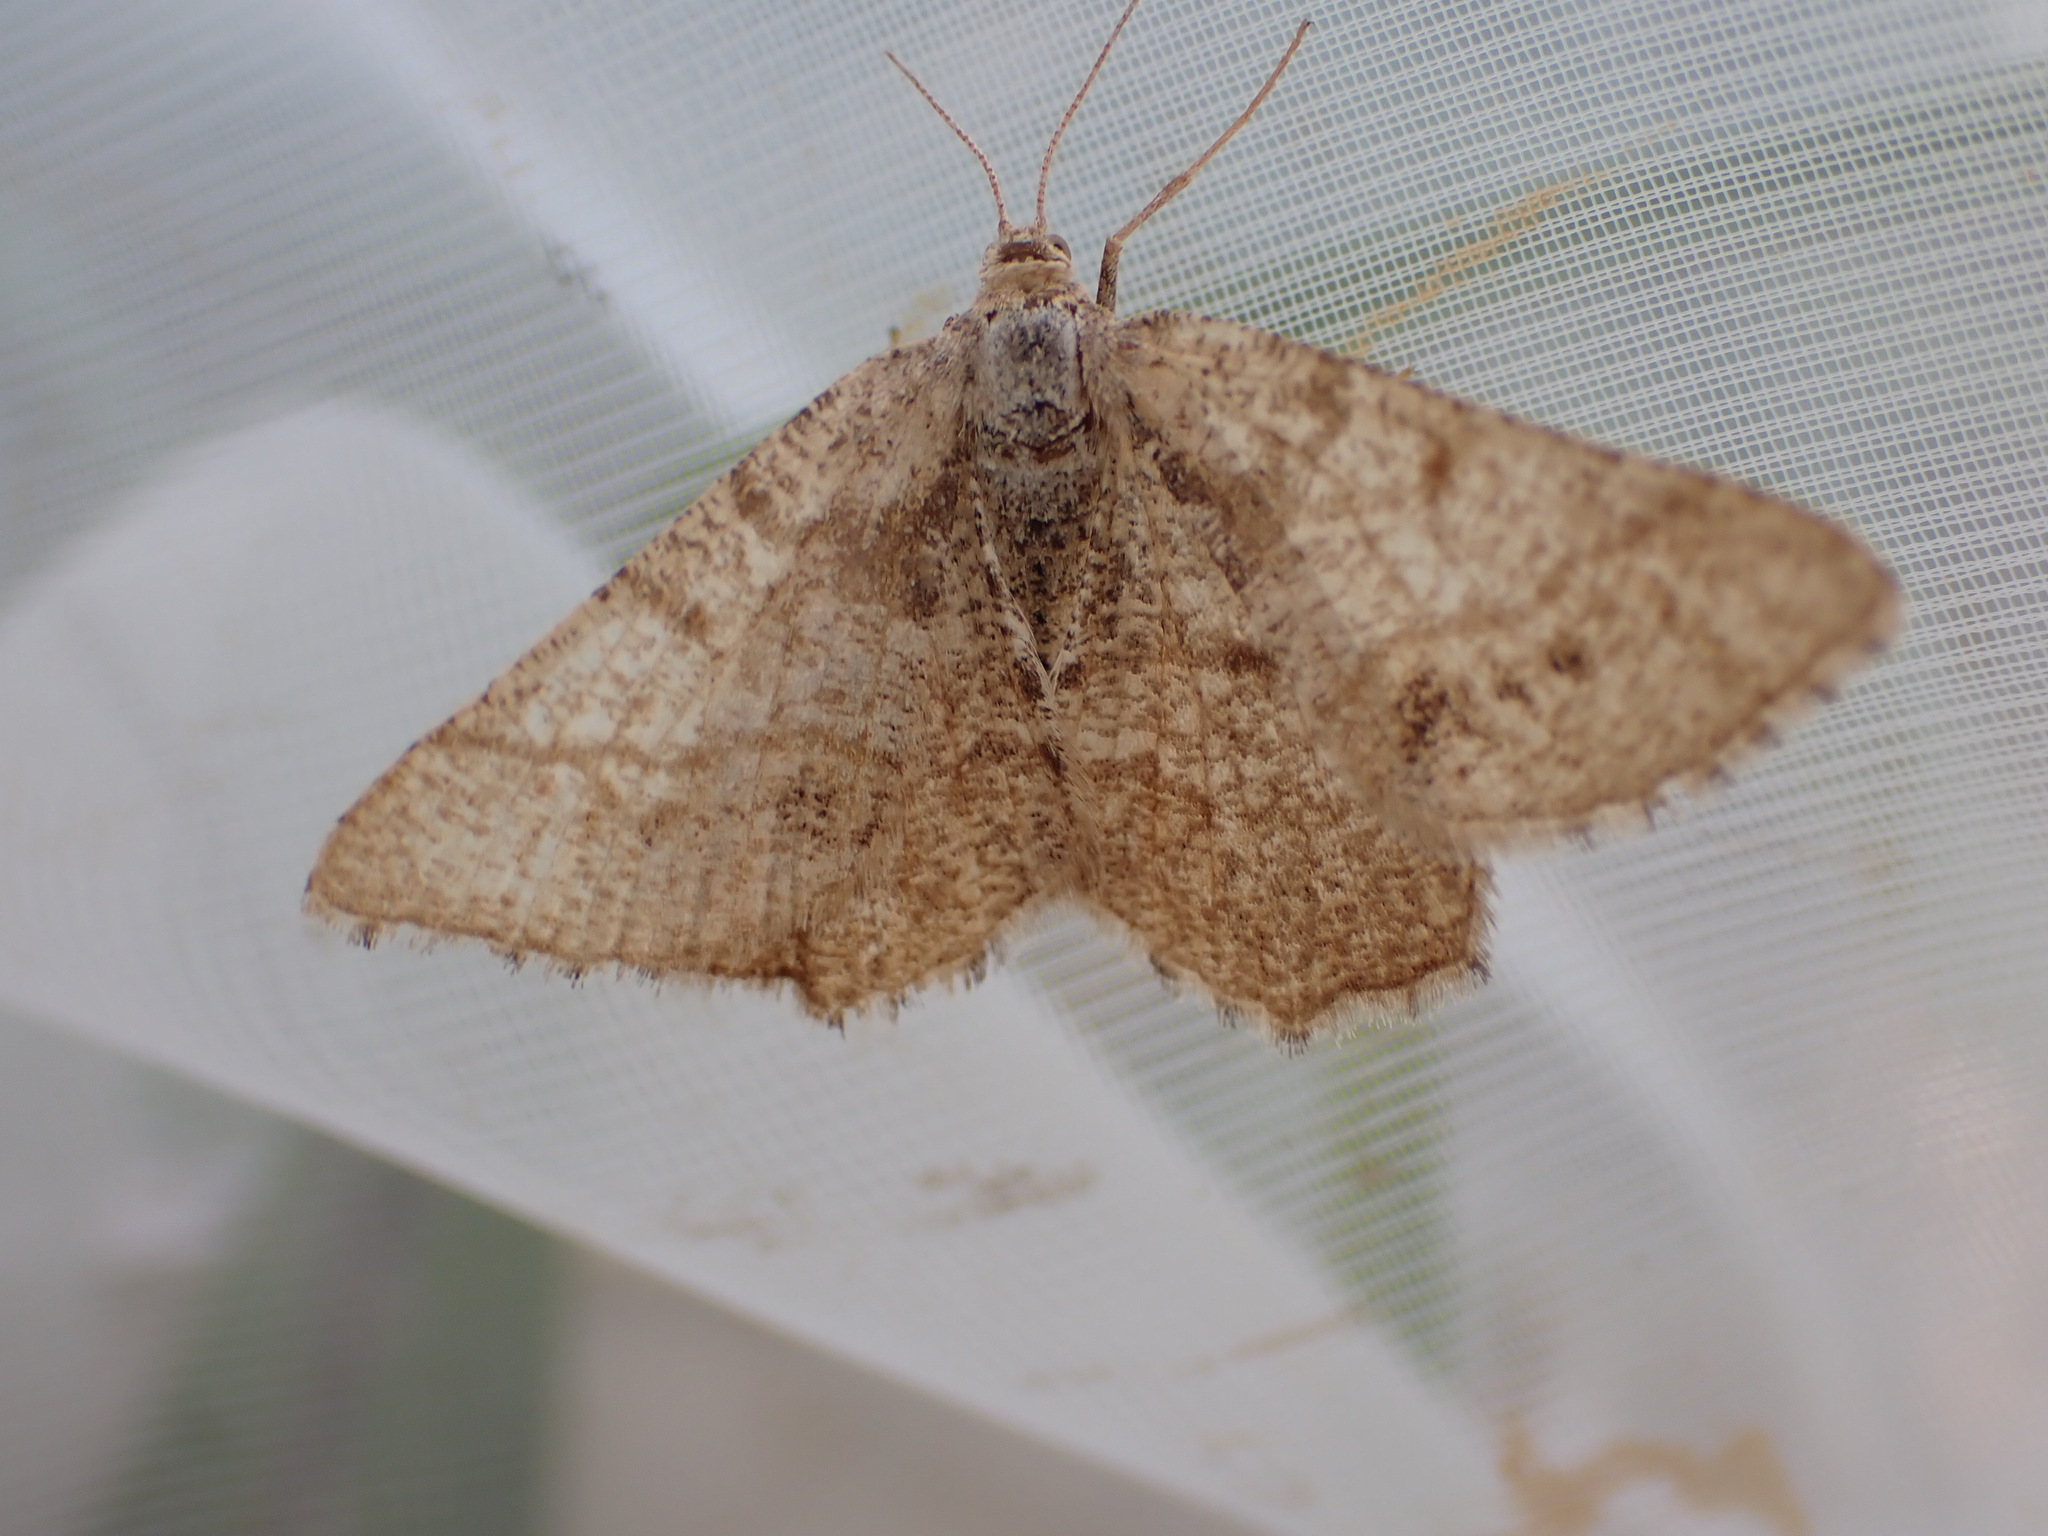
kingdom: Animalia
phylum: Arthropoda
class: Insecta
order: Lepidoptera
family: Geometridae
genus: Tephrina
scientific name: Tephrina murinaria
